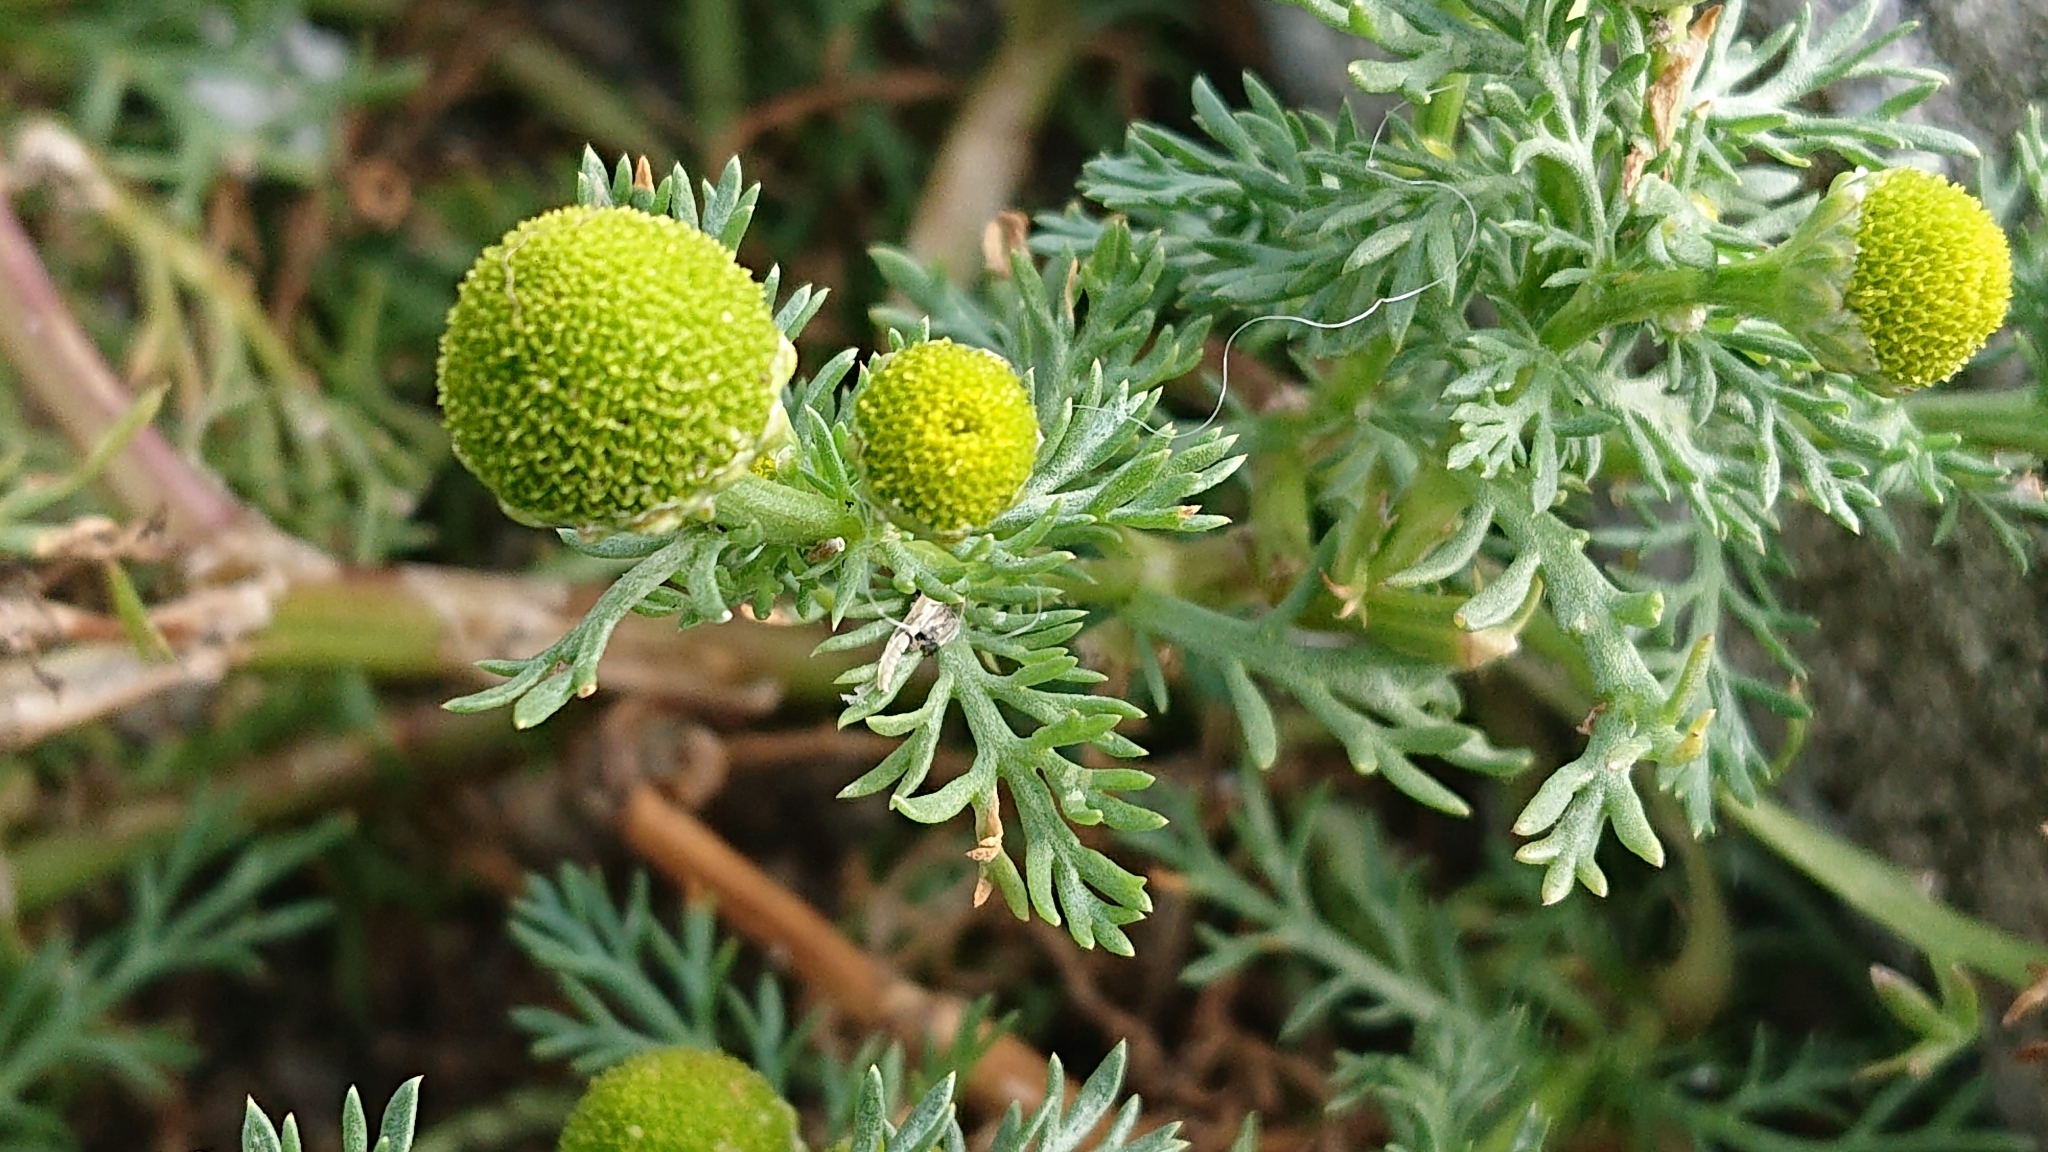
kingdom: Plantae
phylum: Tracheophyta
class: Magnoliopsida
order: Asterales
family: Asteraceae
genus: Matricaria
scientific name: Matricaria discoidea
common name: Disc mayweed
